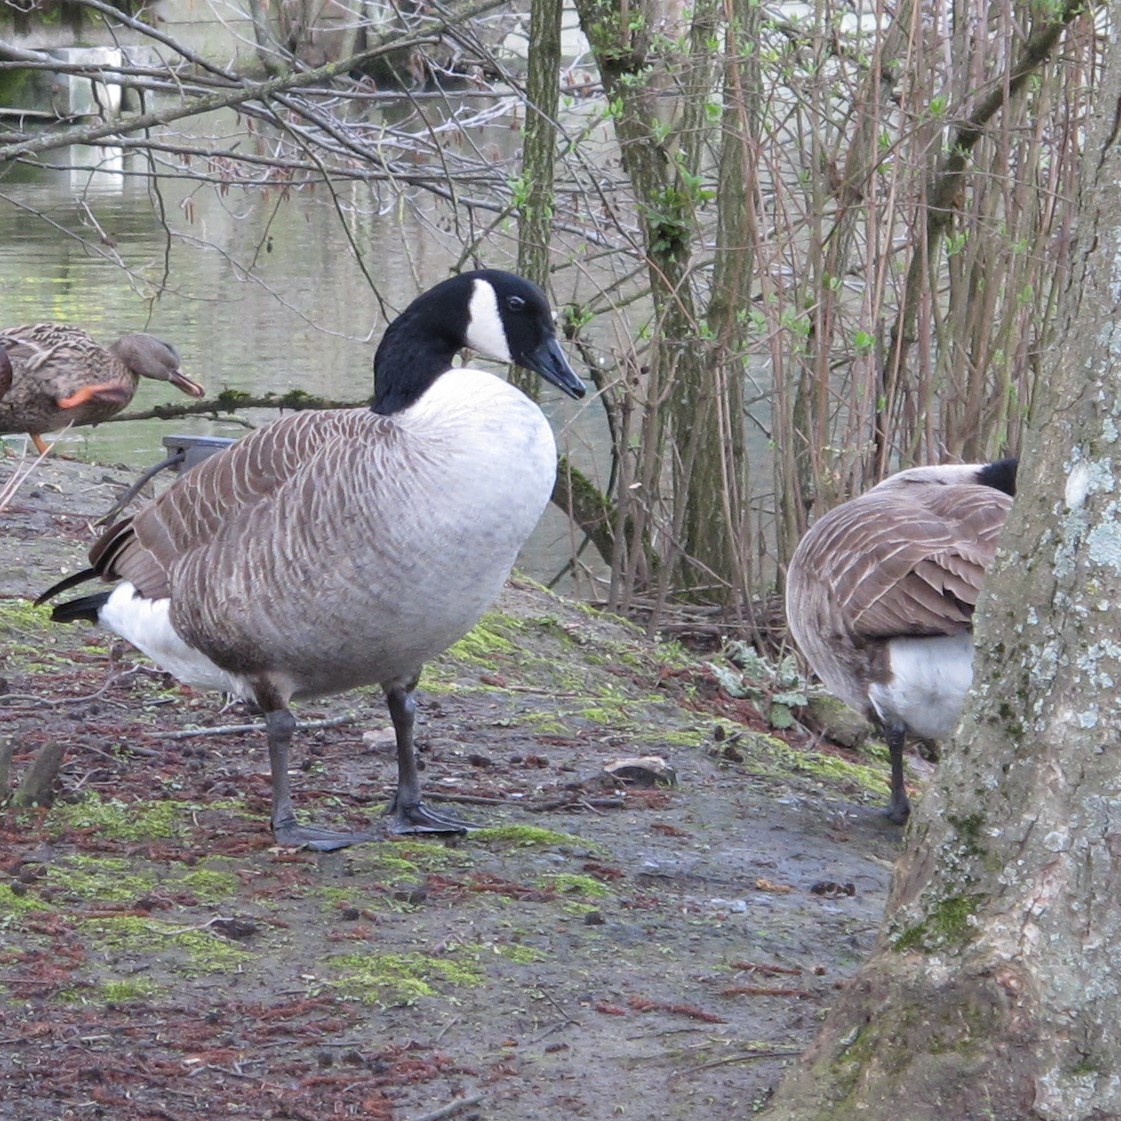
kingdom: Animalia
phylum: Chordata
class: Aves
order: Anseriformes
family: Anatidae
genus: Branta
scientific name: Branta canadensis
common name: Canada goose
